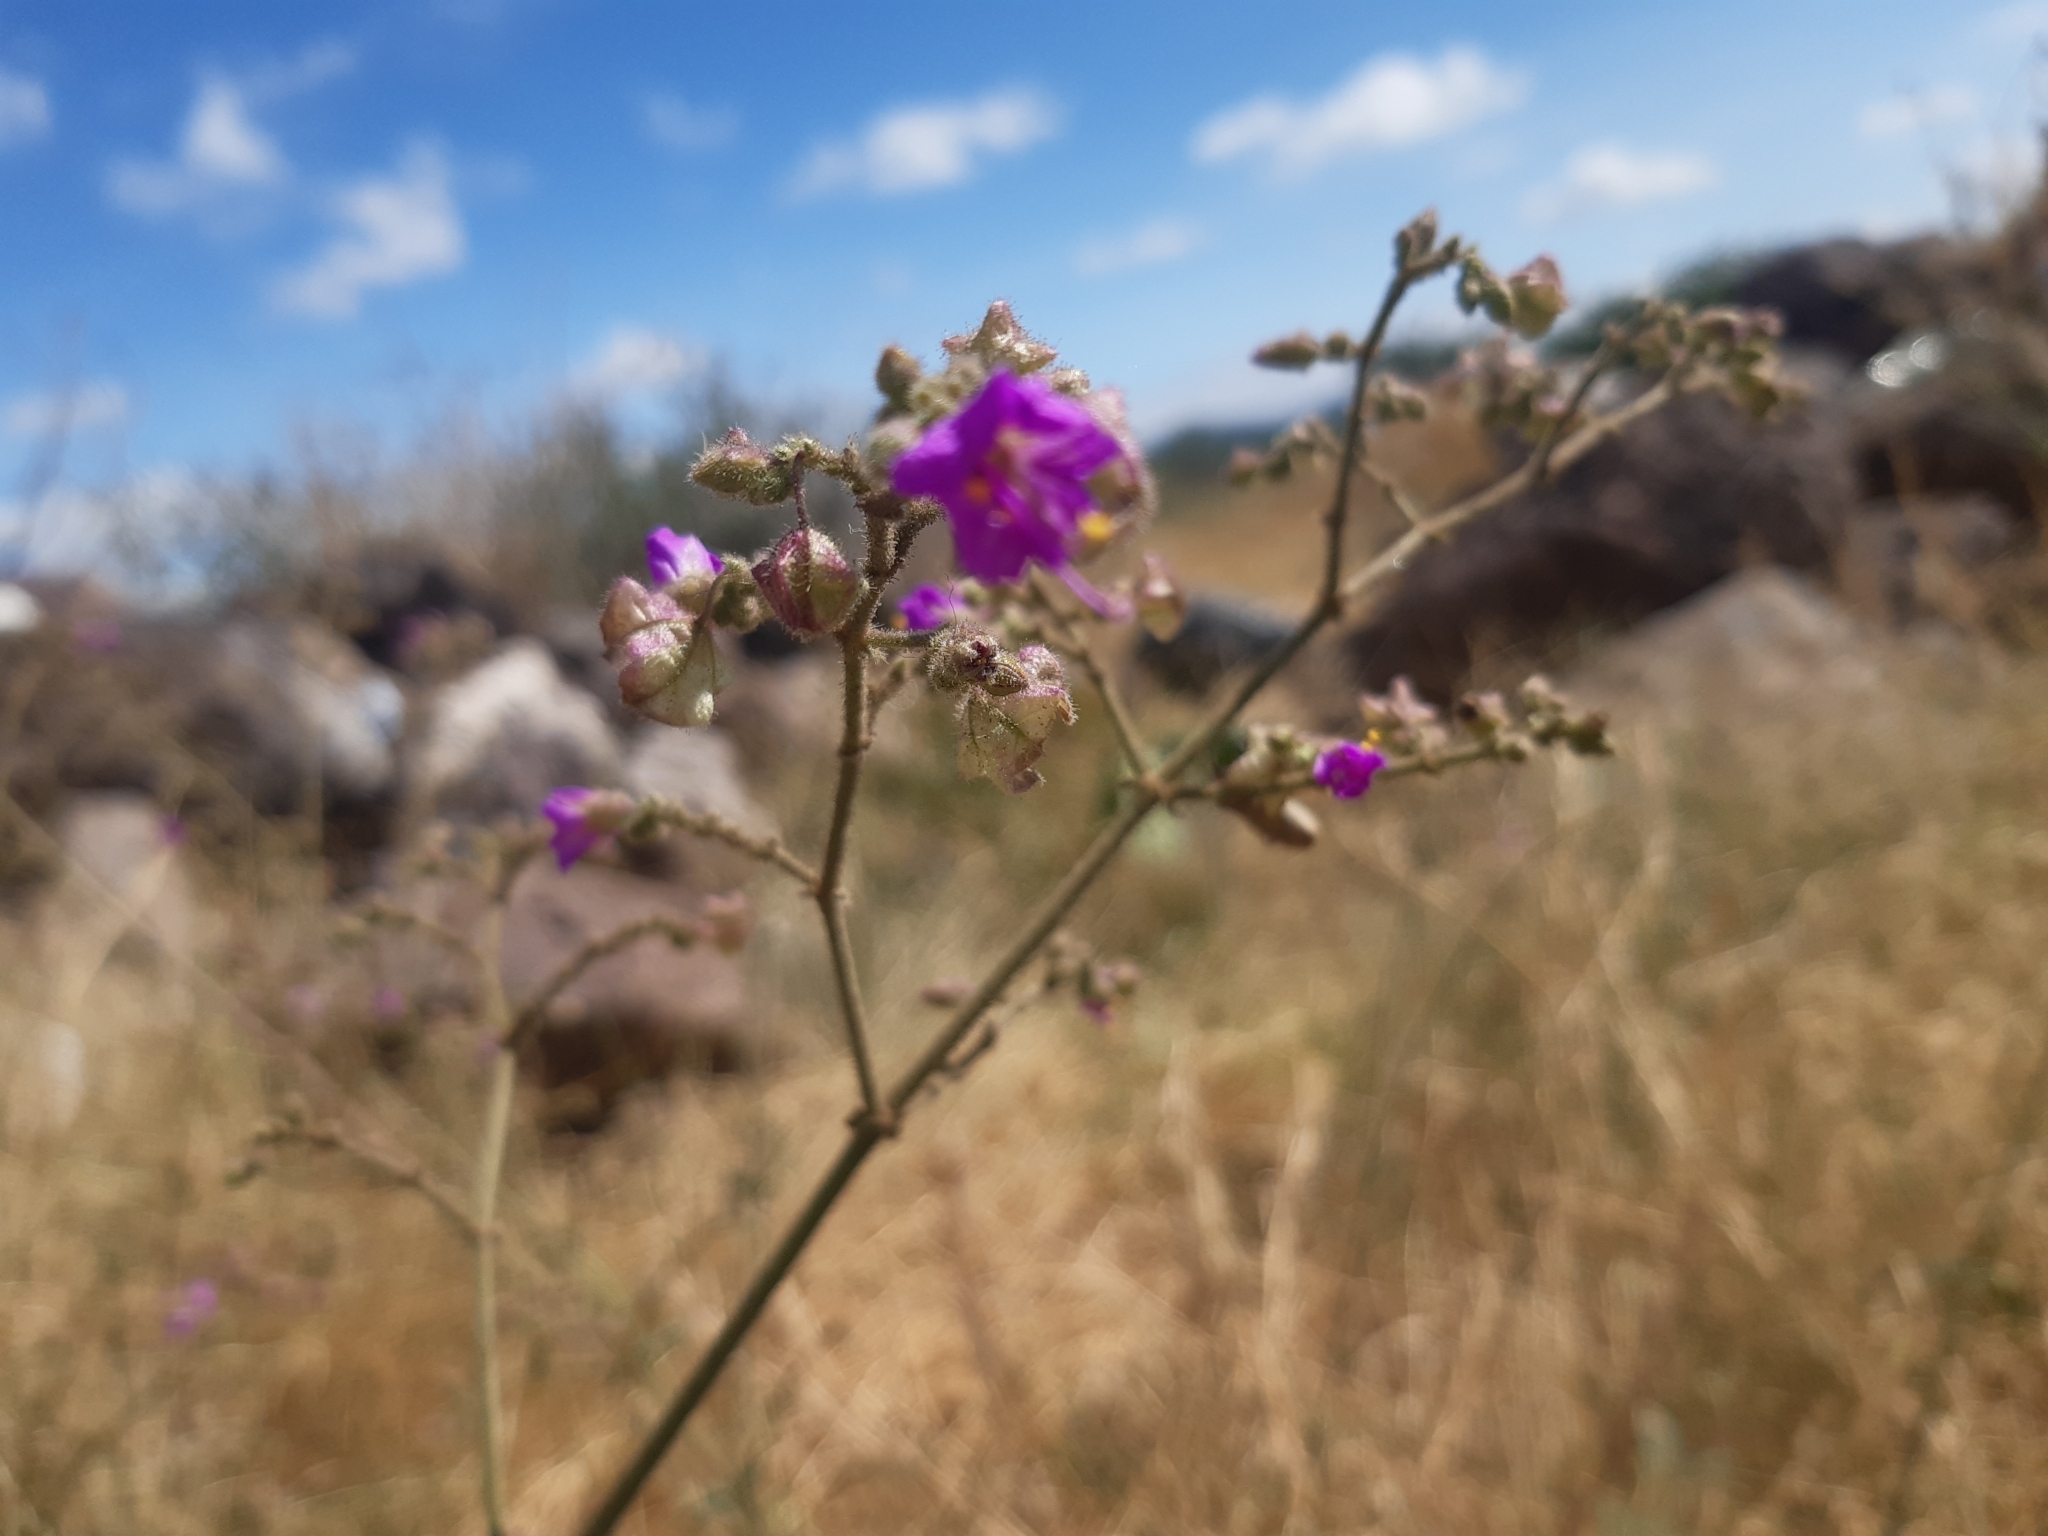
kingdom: Plantae
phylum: Tracheophyta
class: Magnoliopsida
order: Caryophyllales
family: Nyctaginaceae
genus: Mirabilis
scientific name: Mirabilis viscosa
